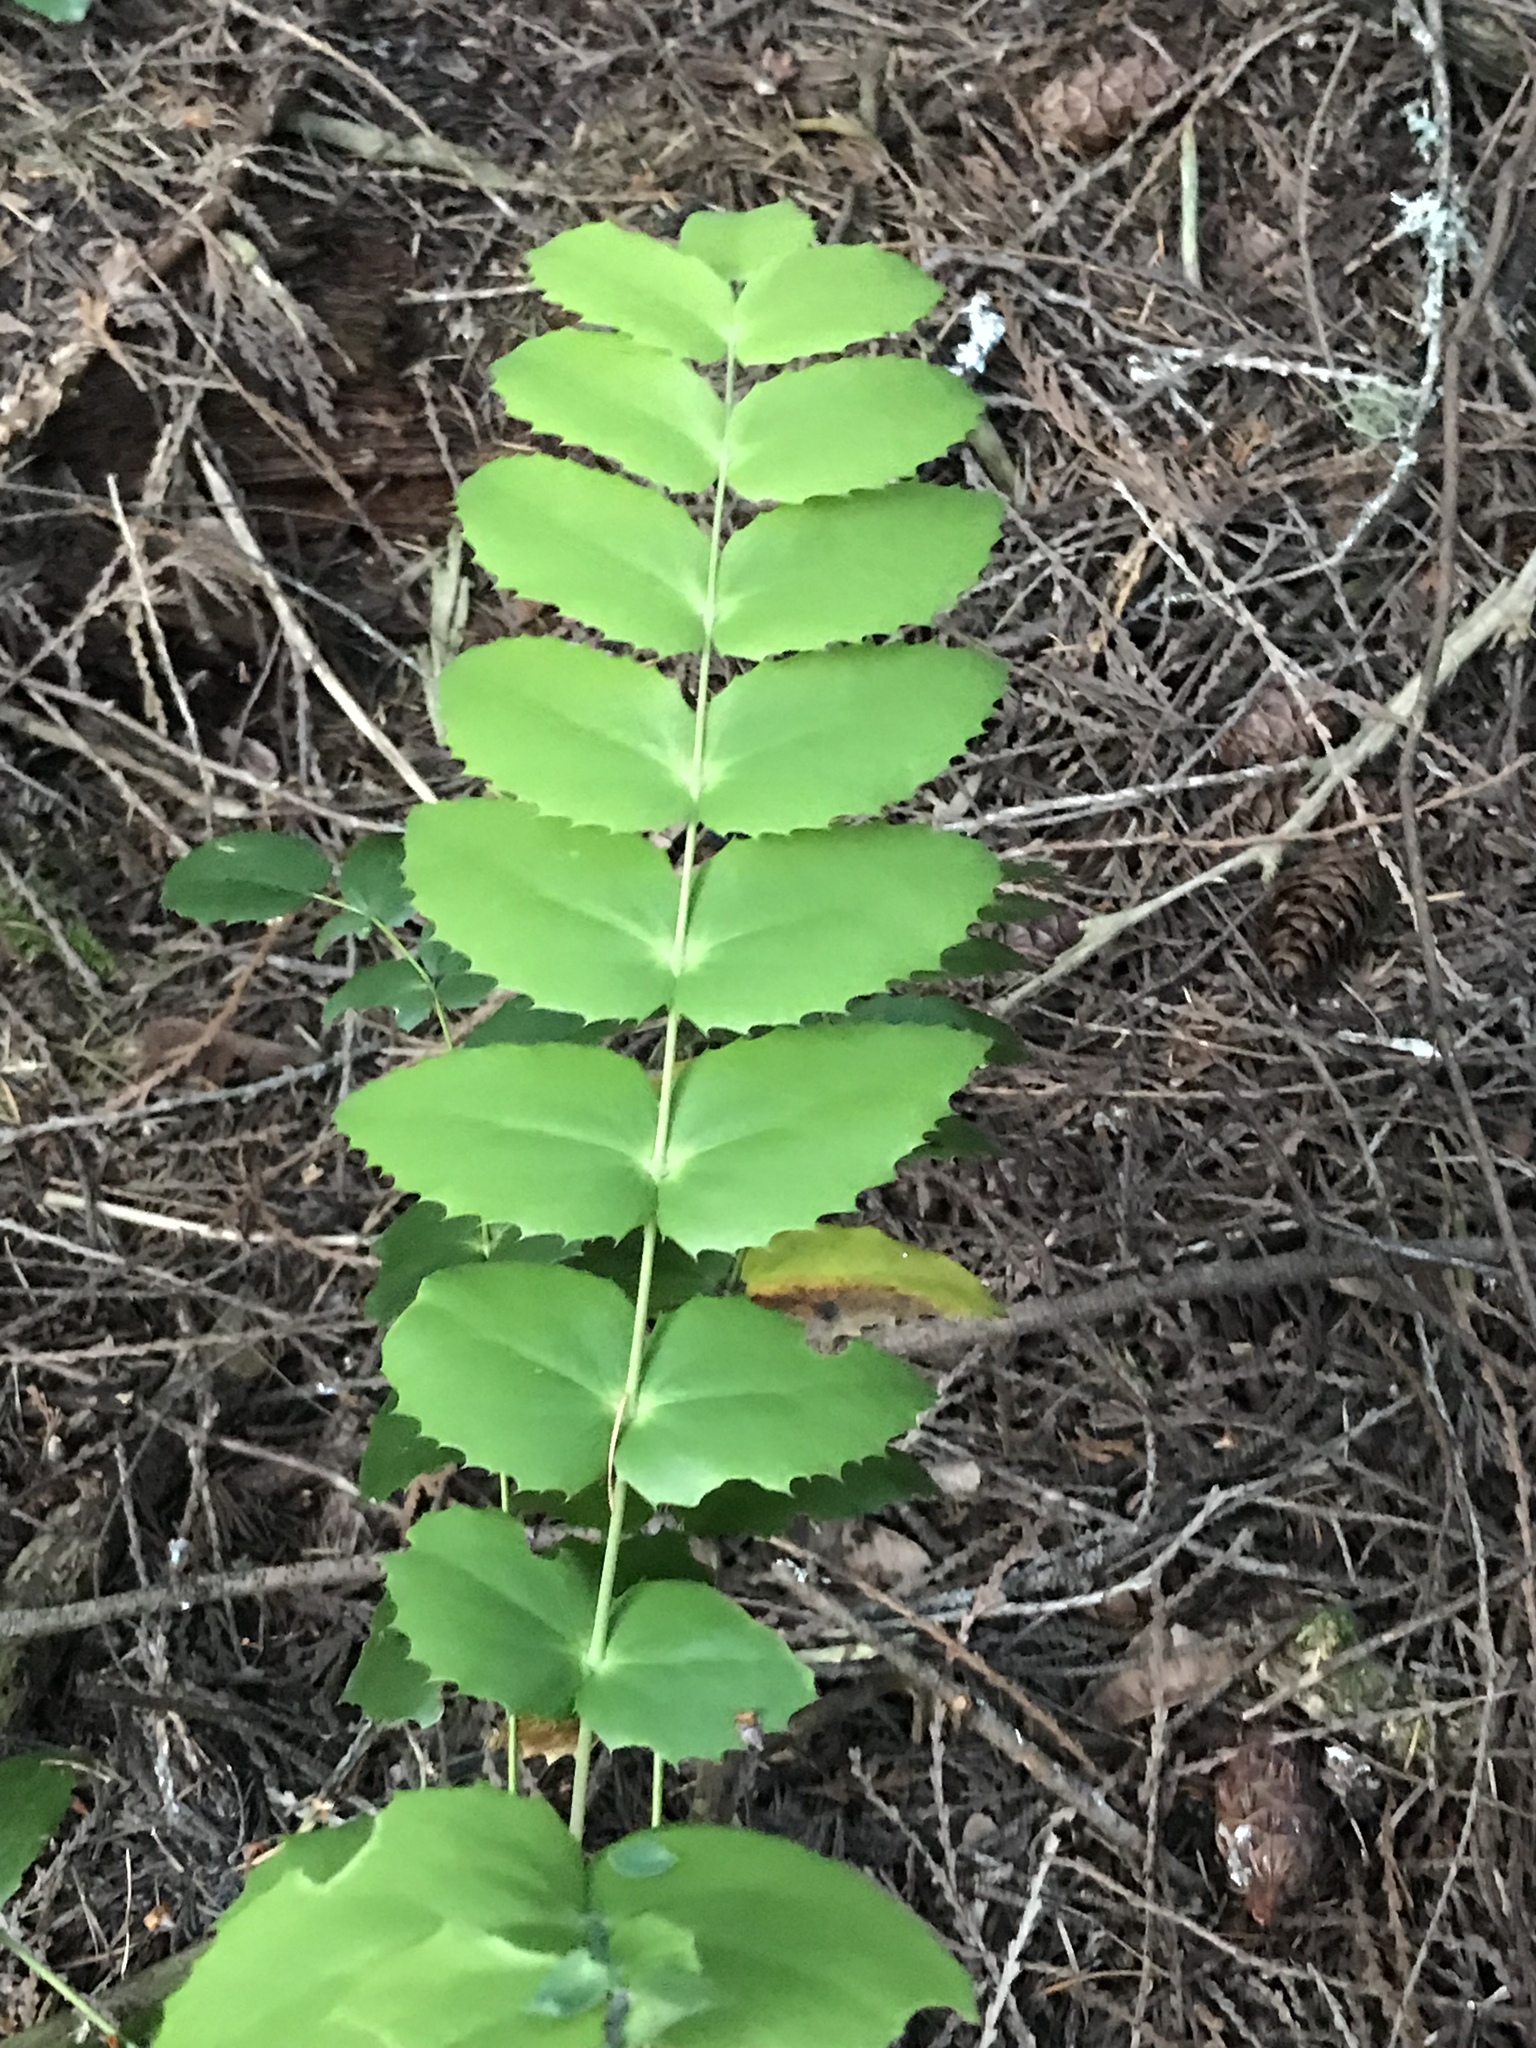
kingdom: Plantae
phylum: Tracheophyta
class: Magnoliopsida
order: Ranunculales
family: Berberidaceae
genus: Mahonia
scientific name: Mahonia nervosa
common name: Cascade oregon-grape
